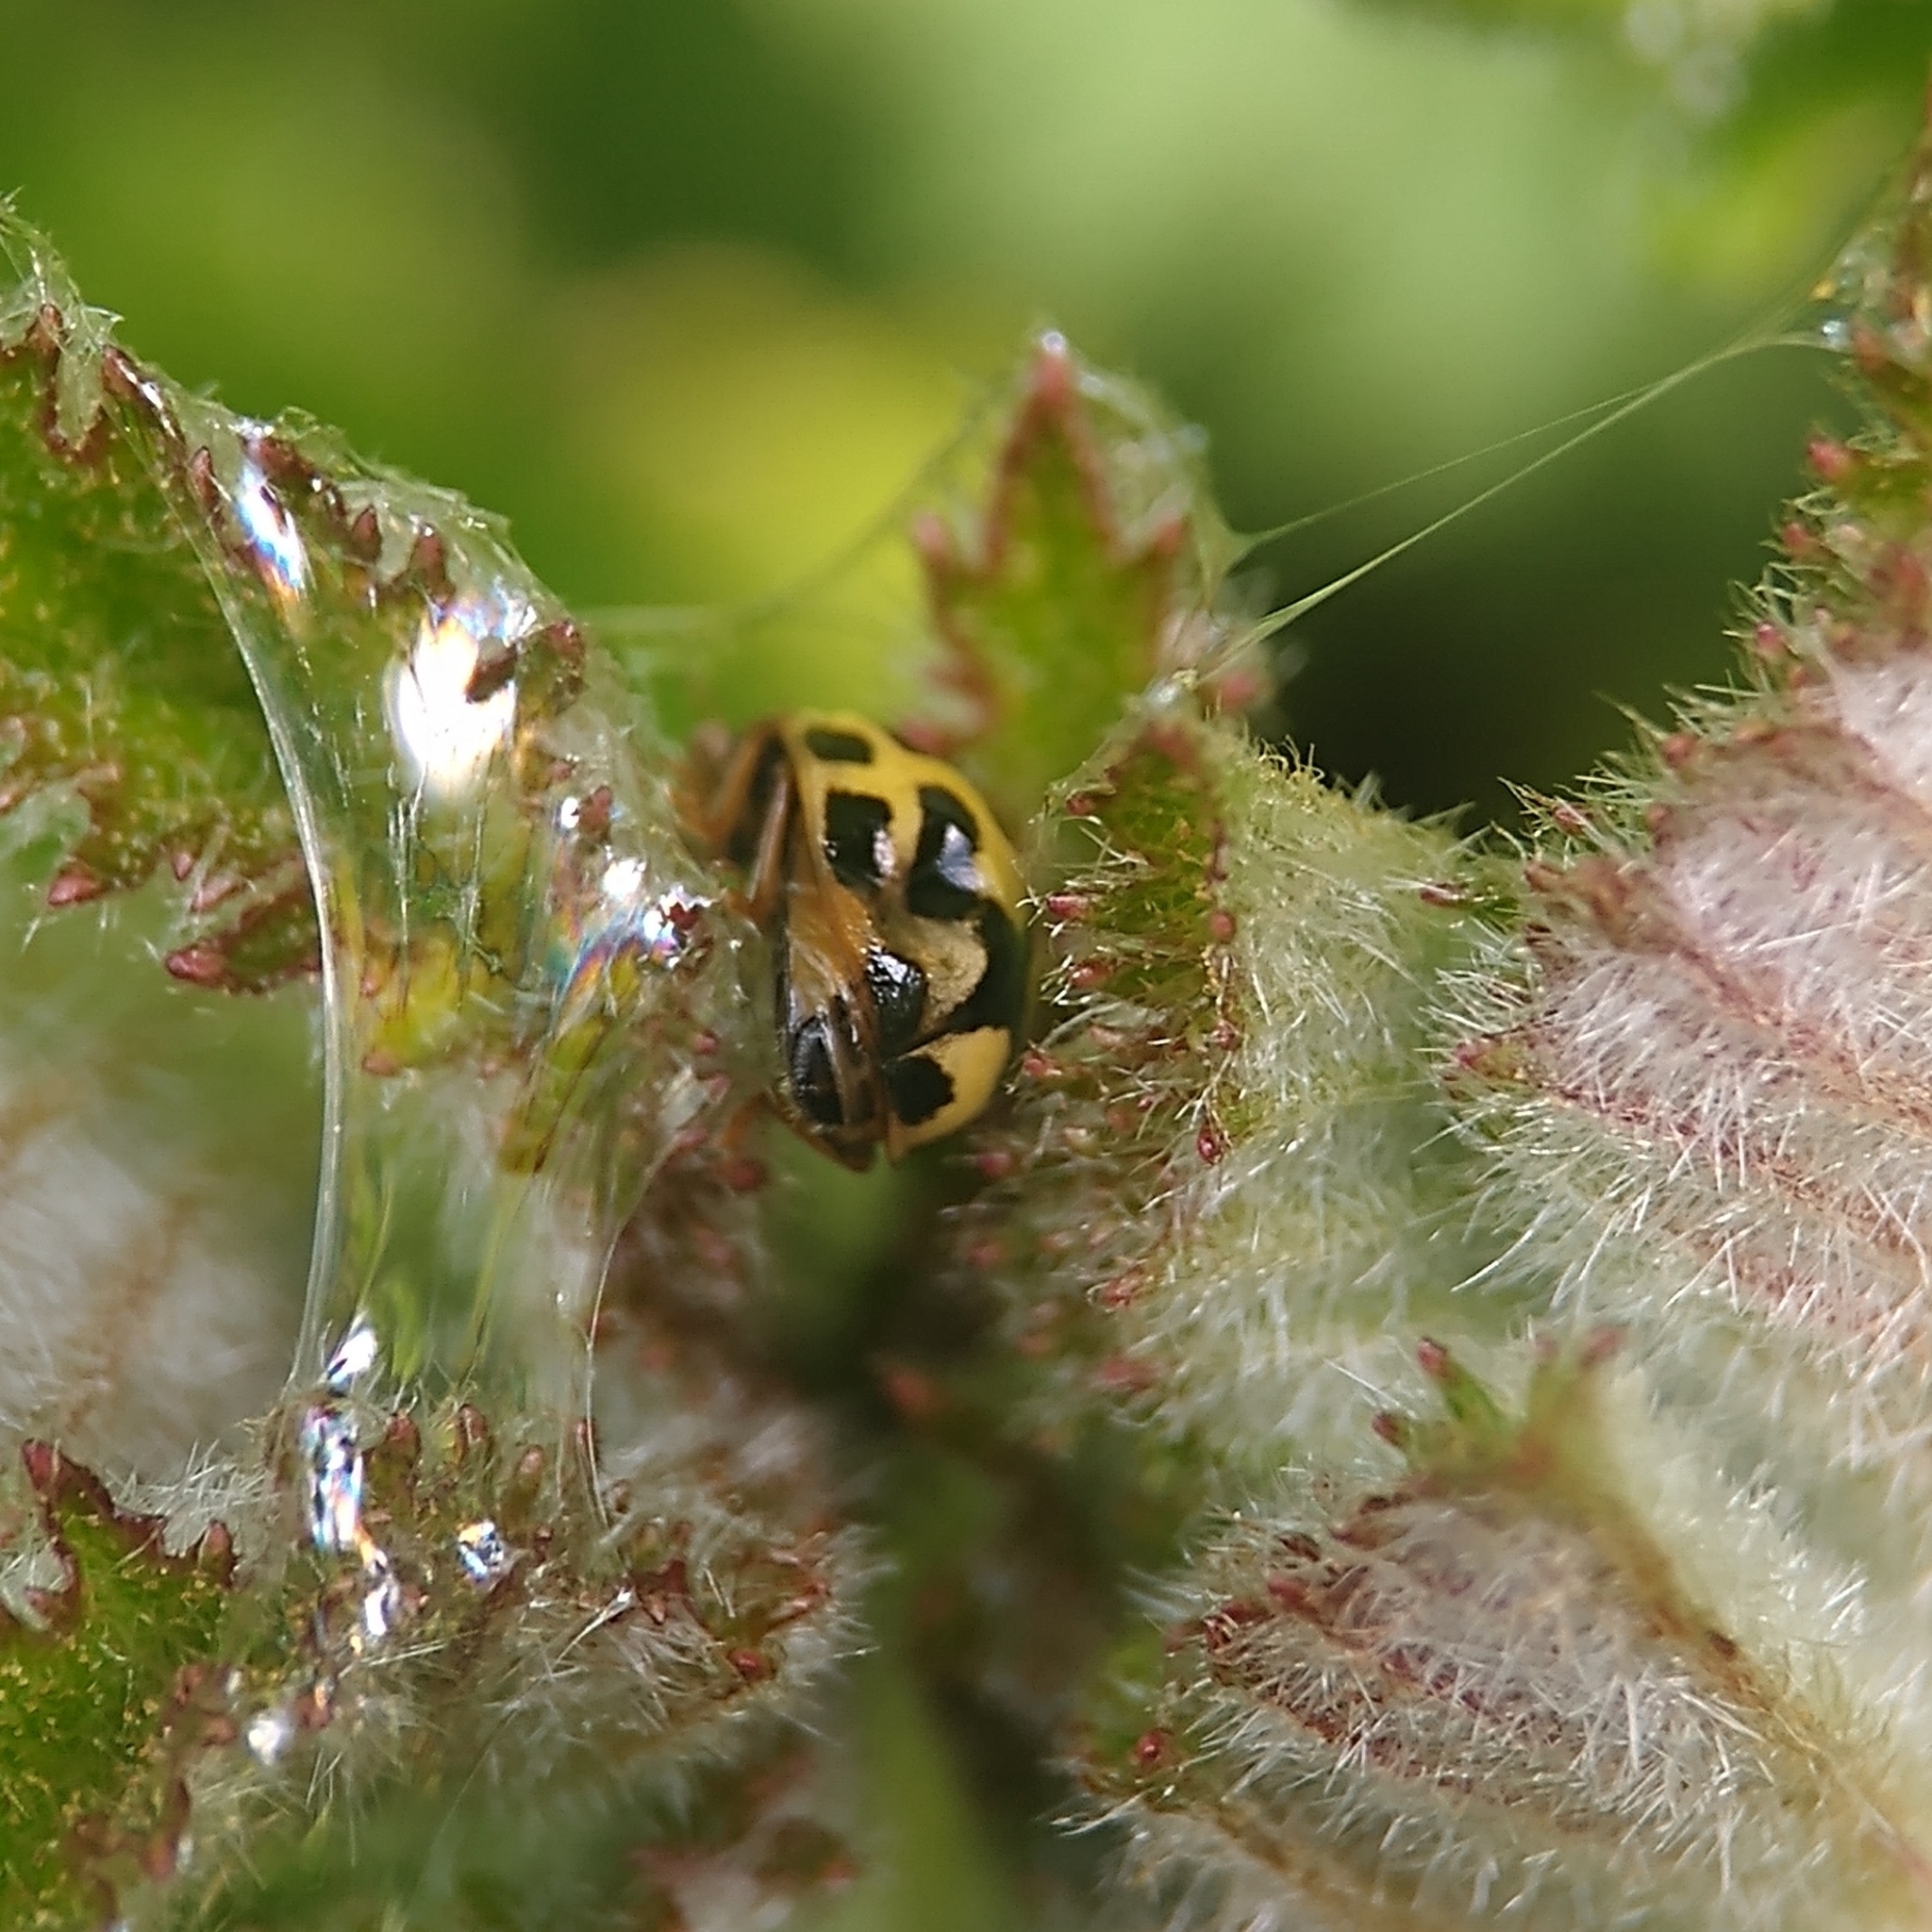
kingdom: Animalia
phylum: Arthropoda
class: Insecta
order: Coleoptera
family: Coccinellidae
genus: Propylaea
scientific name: Propylaea quatuordecimpunctata
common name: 14-spotted ladybird beetle
